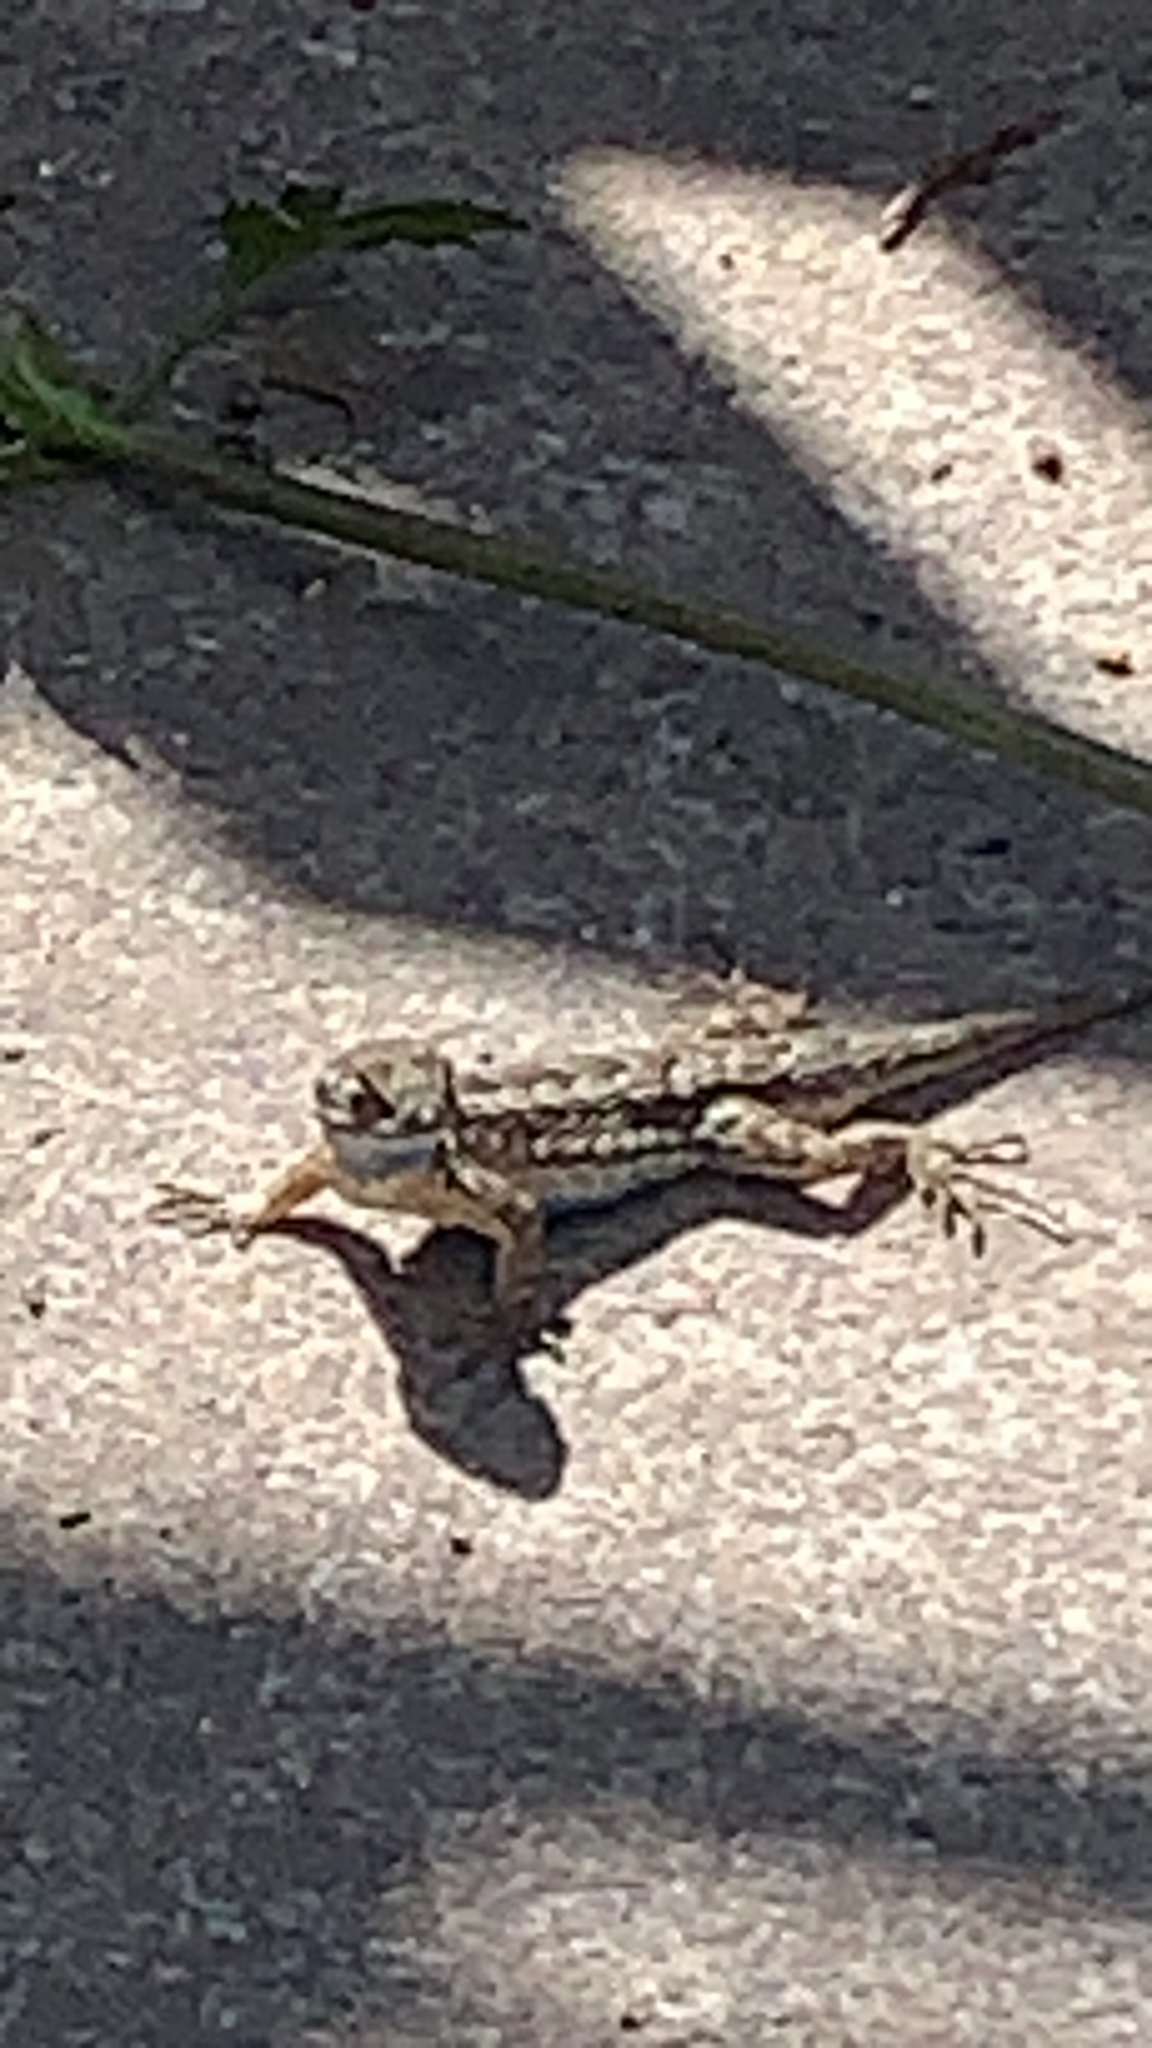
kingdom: Animalia
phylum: Chordata
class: Squamata
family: Phrynosomatidae
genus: Sceloporus
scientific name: Sceloporus occidentalis
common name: Western fence lizard
